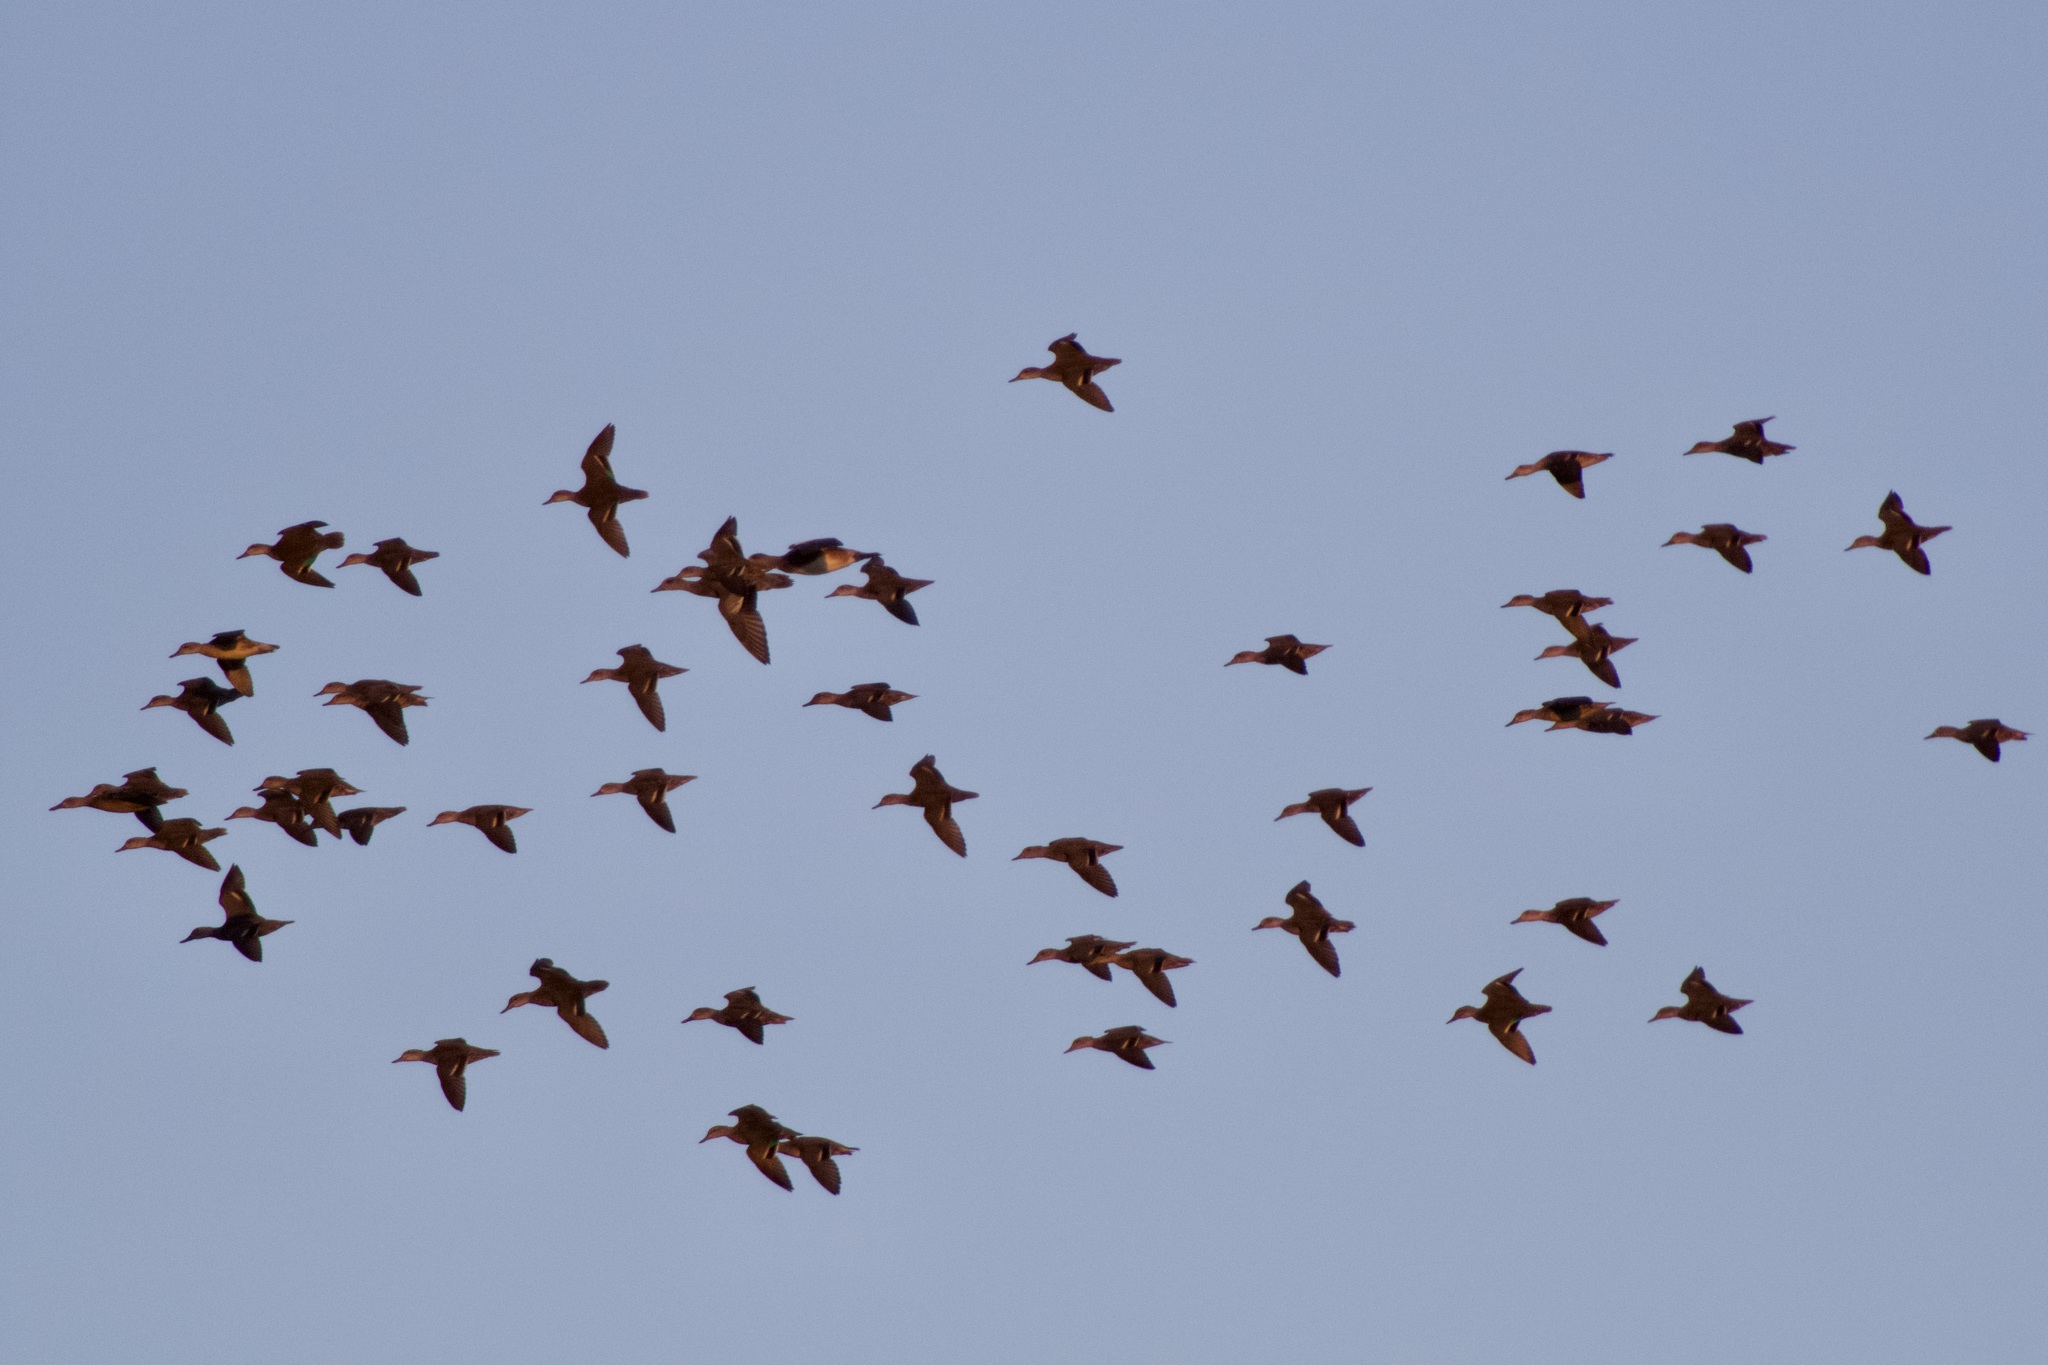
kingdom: Animalia
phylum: Chordata
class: Aves
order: Anseriformes
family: Anatidae
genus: Anas
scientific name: Anas crecca
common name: Eurasian teal
